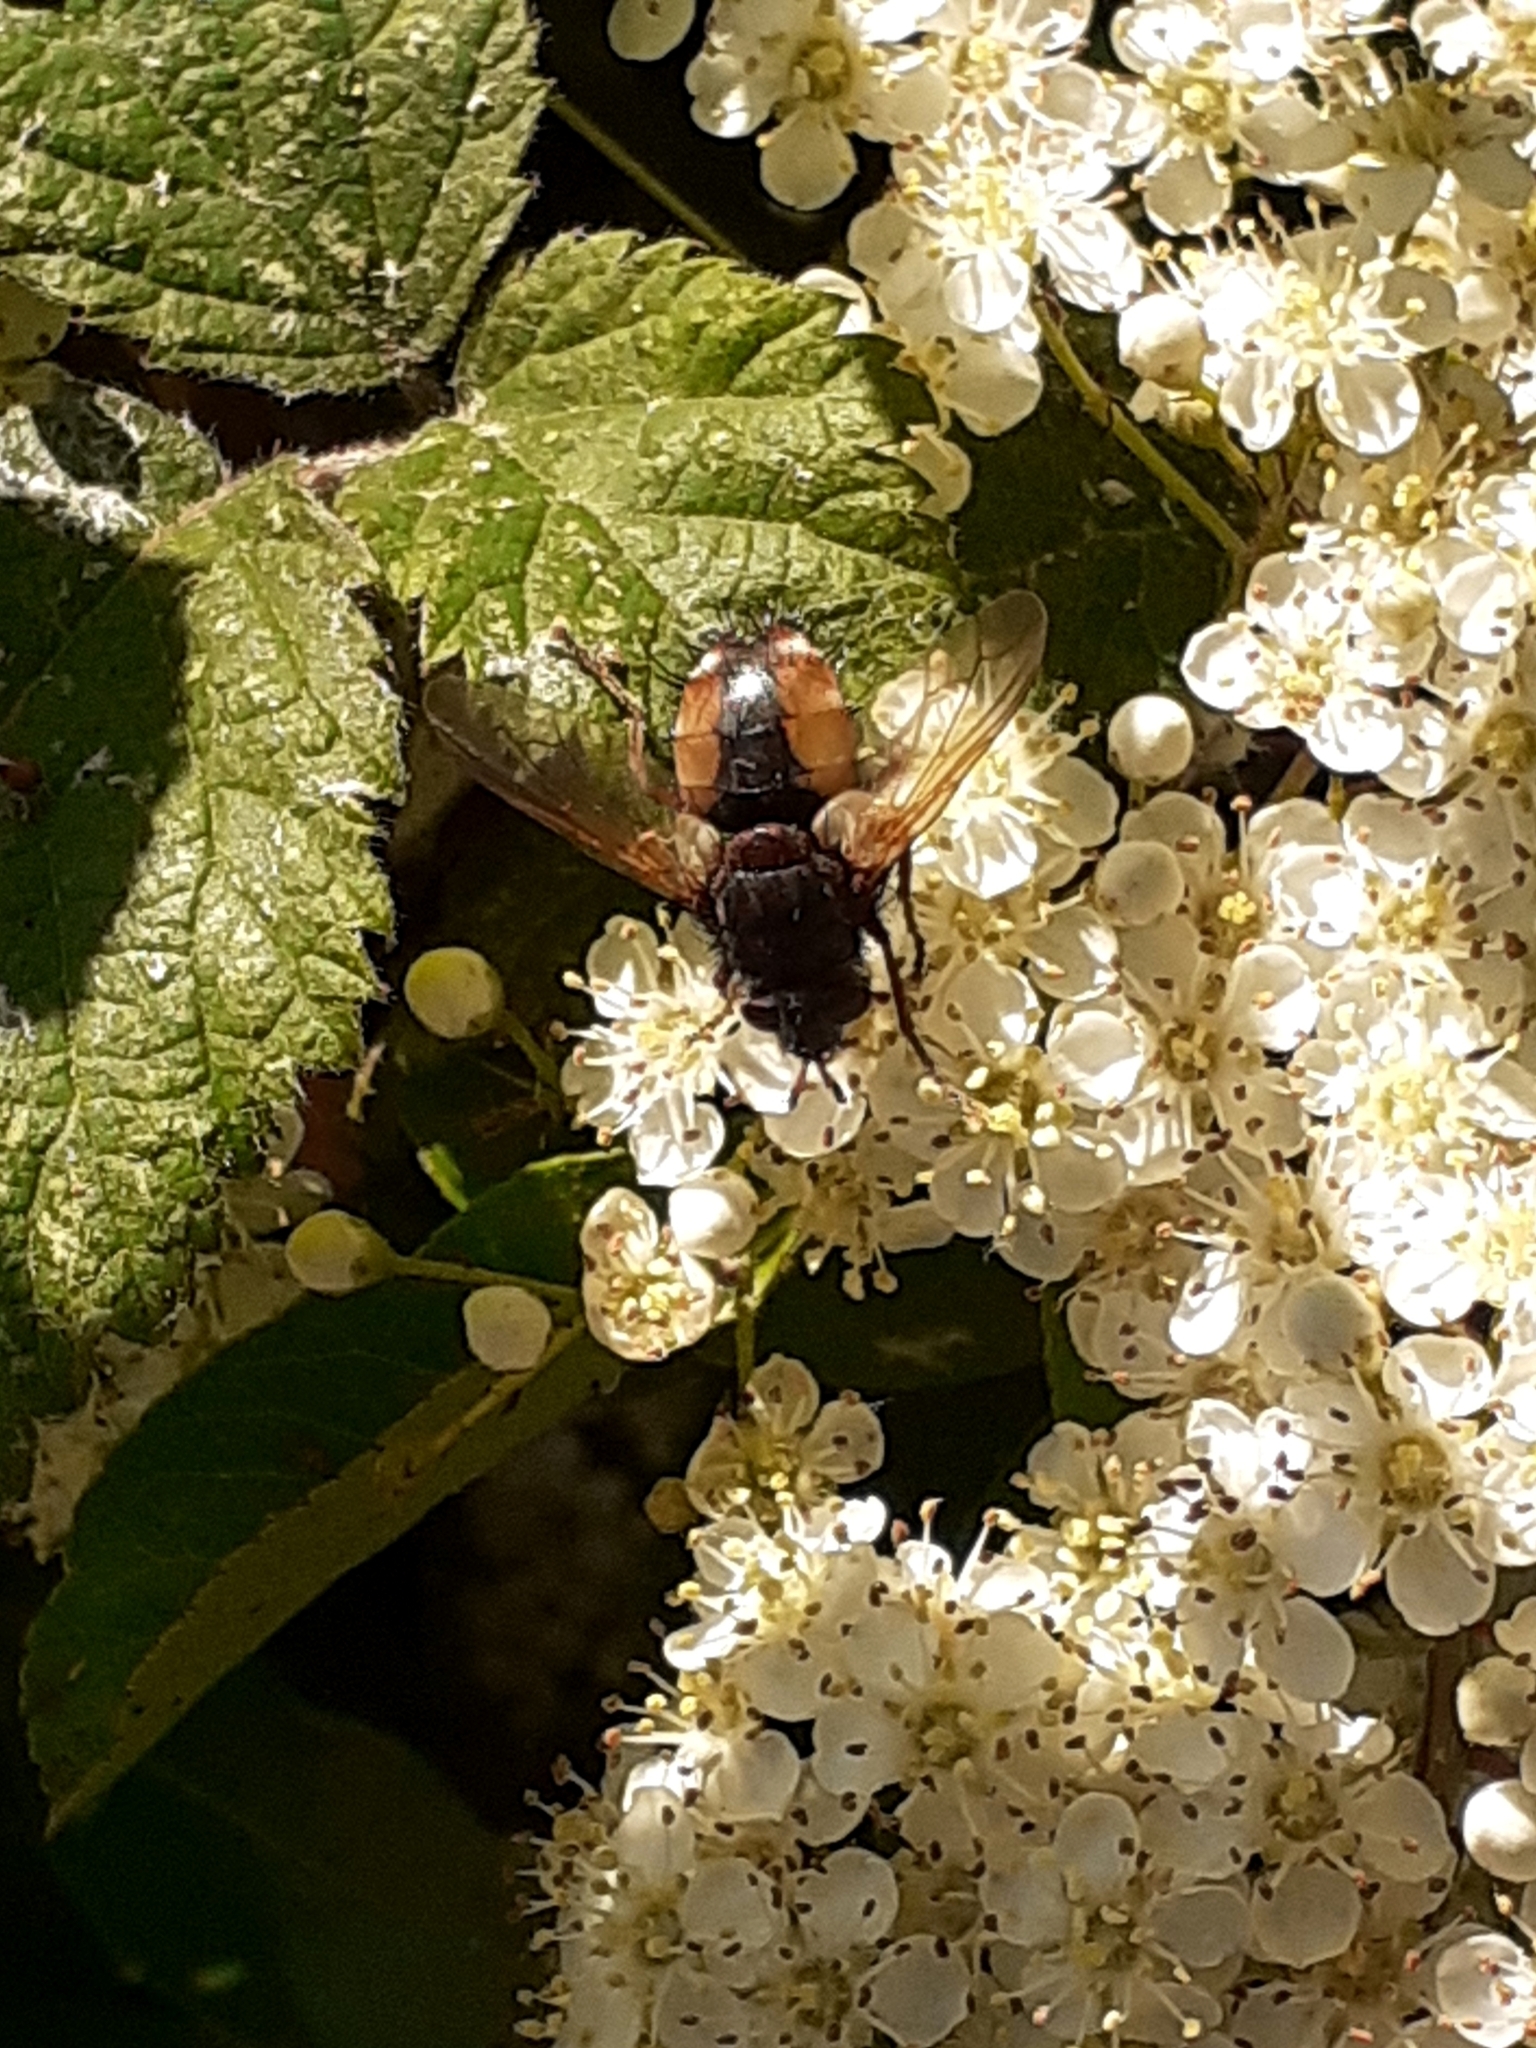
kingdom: Animalia
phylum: Arthropoda
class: Insecta
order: Diptera
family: Tachinidae
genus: Tachina
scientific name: Tachina fera
